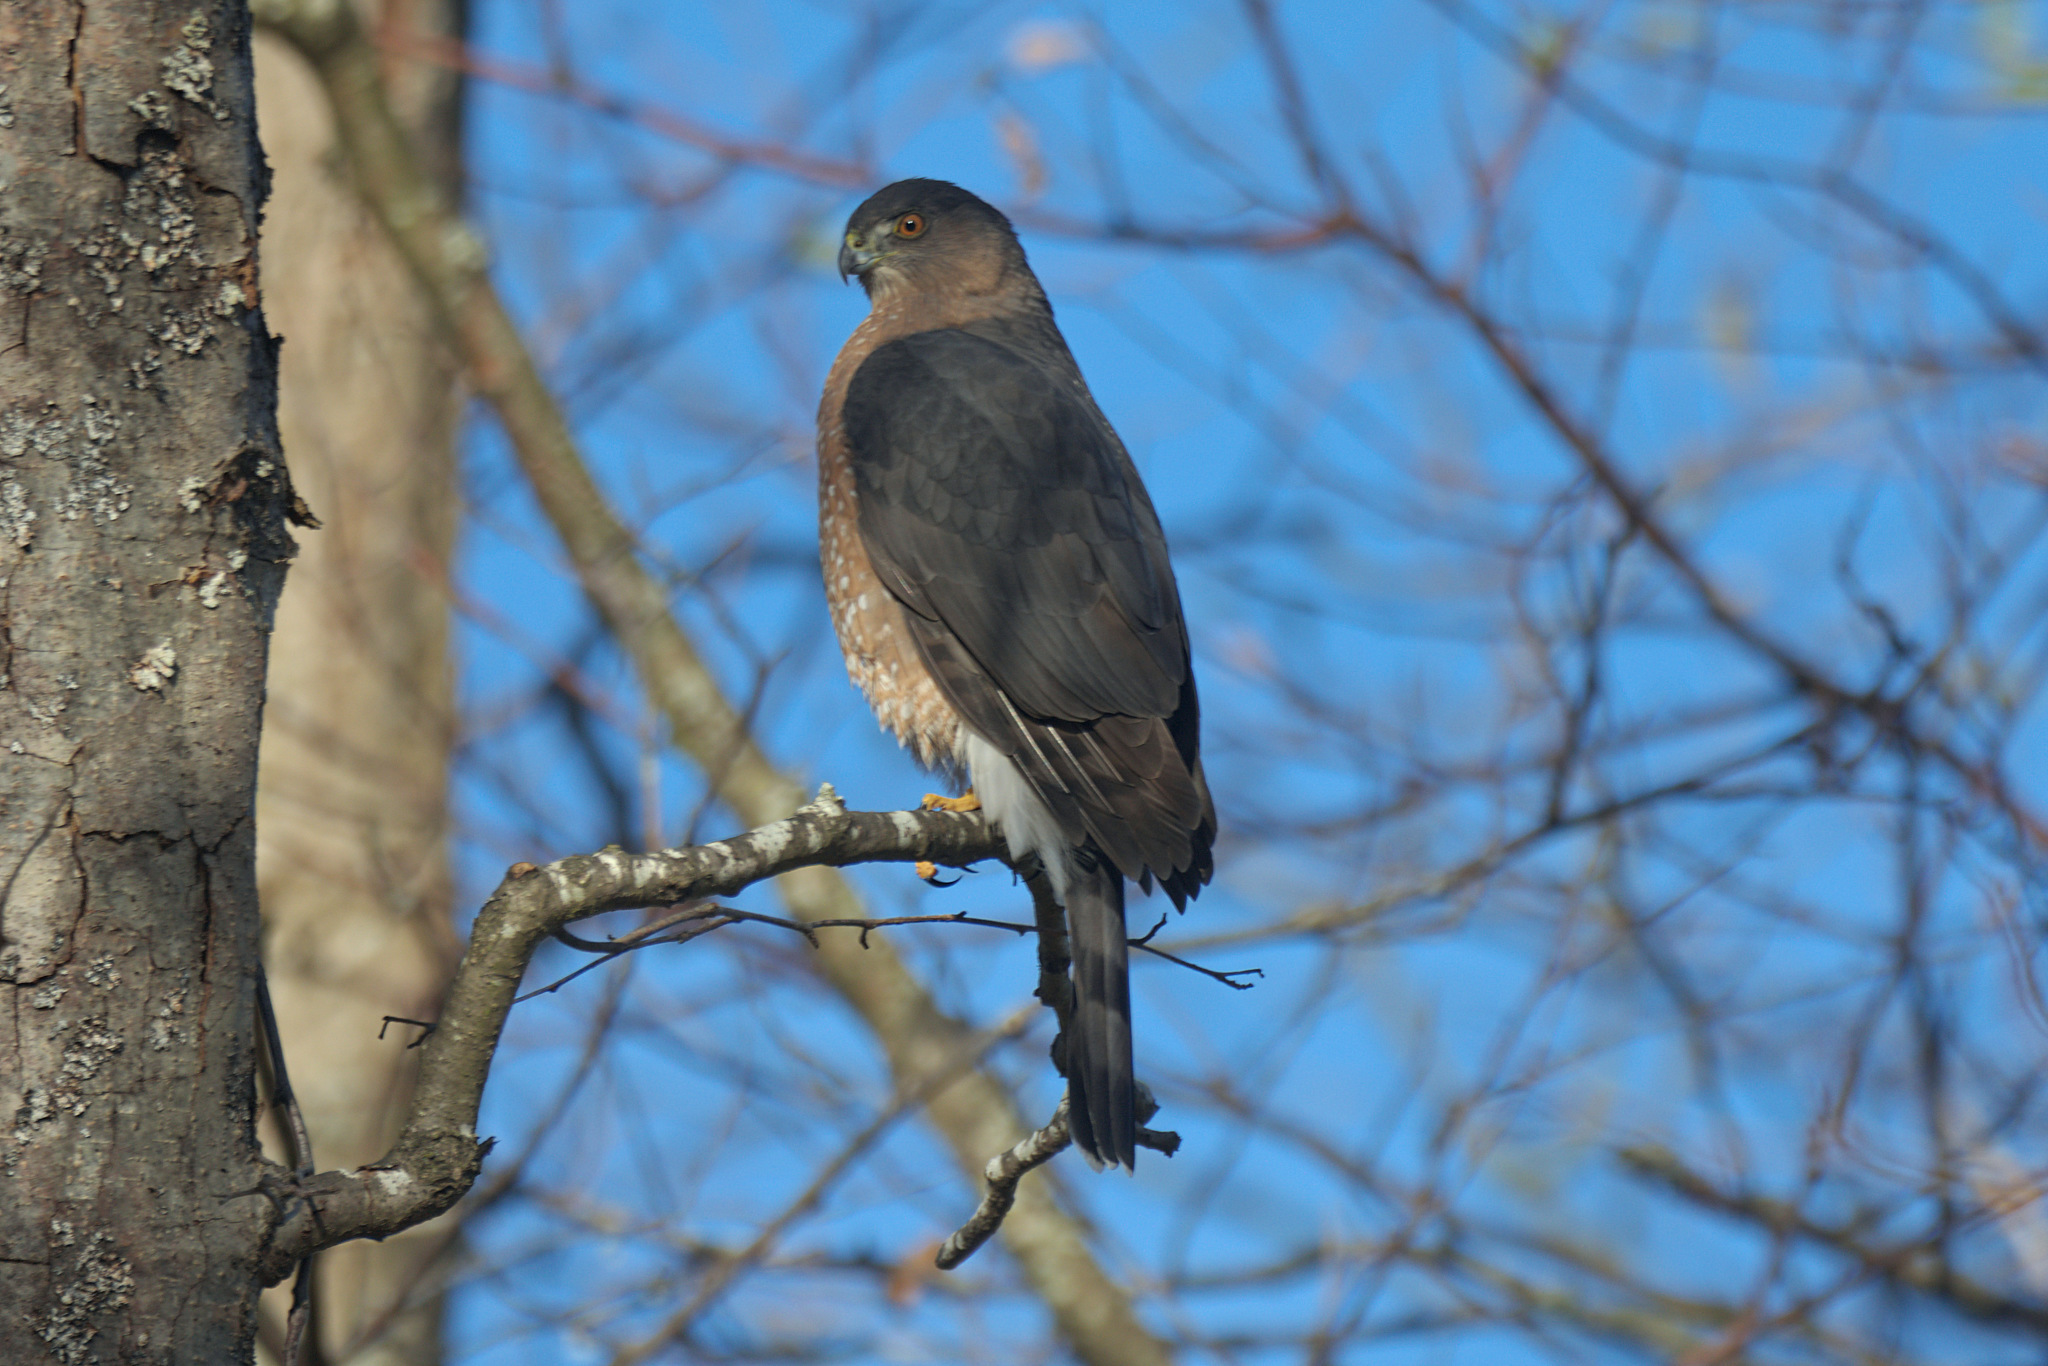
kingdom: Animalia
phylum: Chordata
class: Aves
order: Accipitriformes
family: Accipitridae
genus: Accipiter
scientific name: Accipiter cooperii
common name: Cooper's hawk
